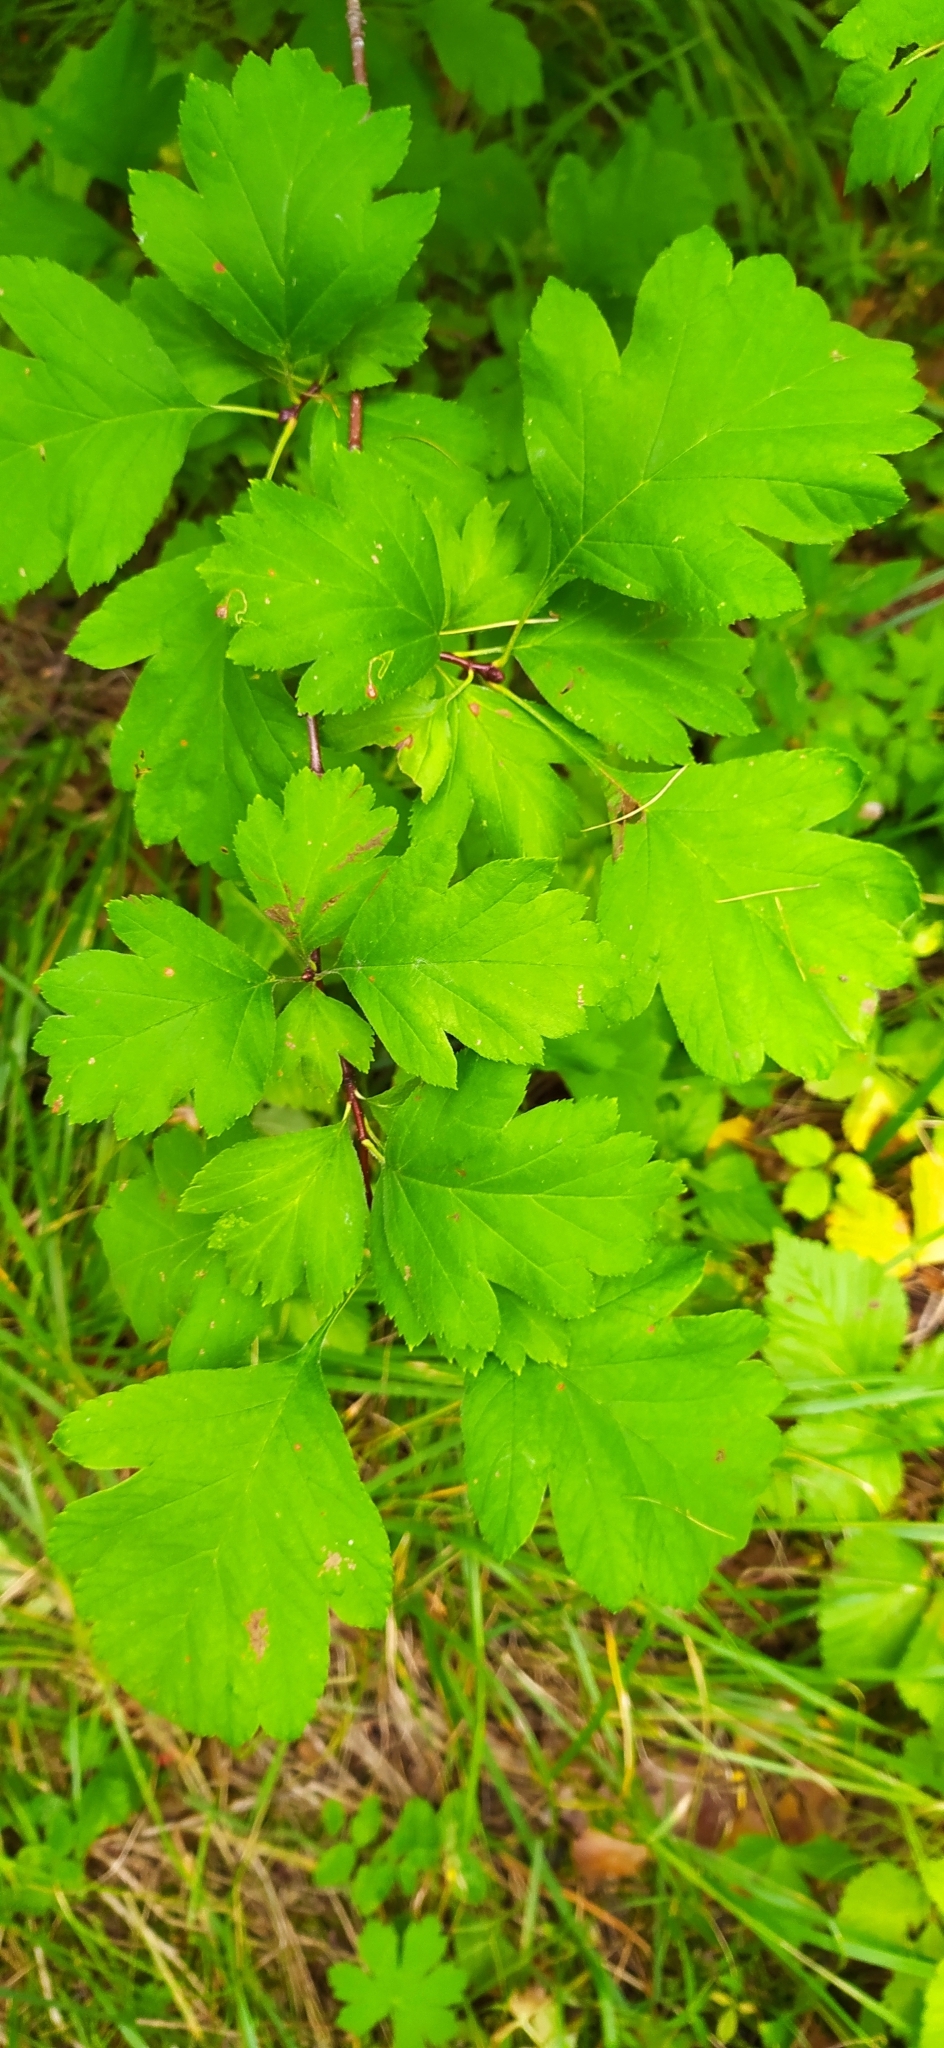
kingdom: Plantae
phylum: Tracheophyta
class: Magnoliopsida
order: Rosales
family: Rosaceae
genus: Crataegus
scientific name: Crataegus sanguinea
